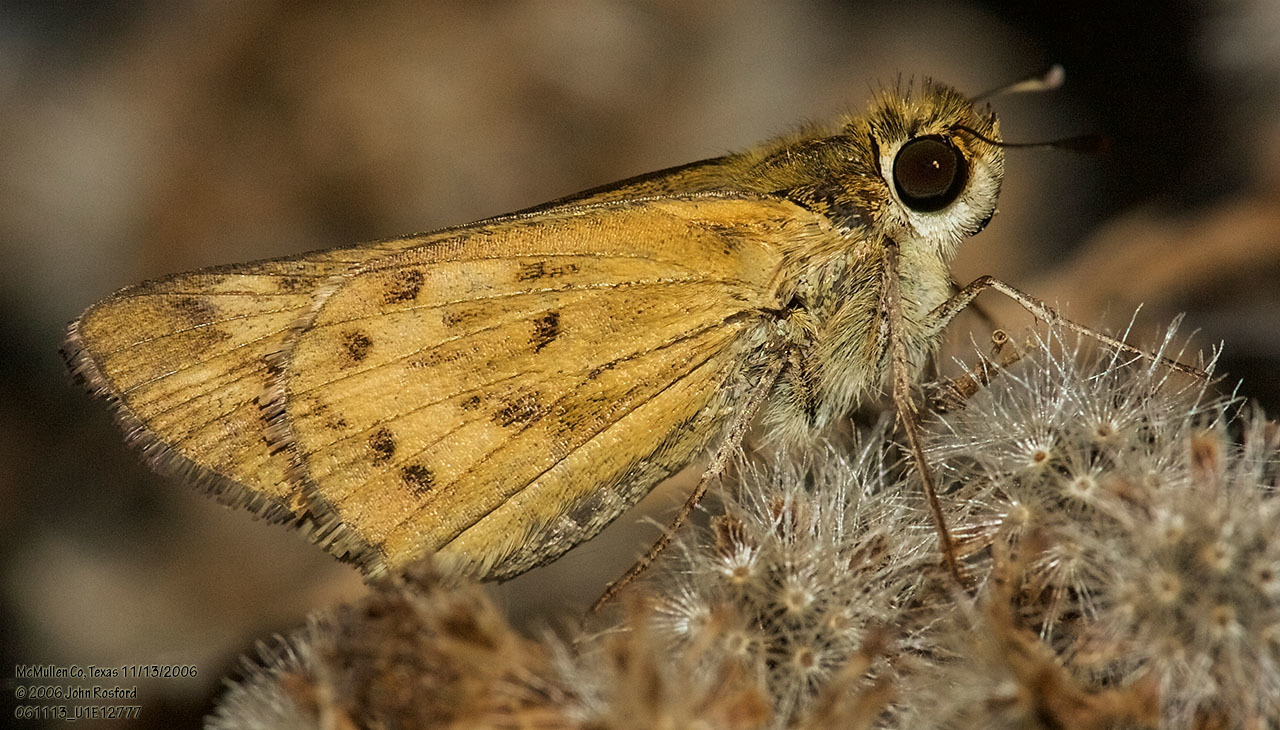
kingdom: Animalia
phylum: Arthropoda
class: Insecta
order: Lepidoptera
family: Hesperiidae
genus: Hylephila
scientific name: Hylephila phyleus
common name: Fiery skipper
